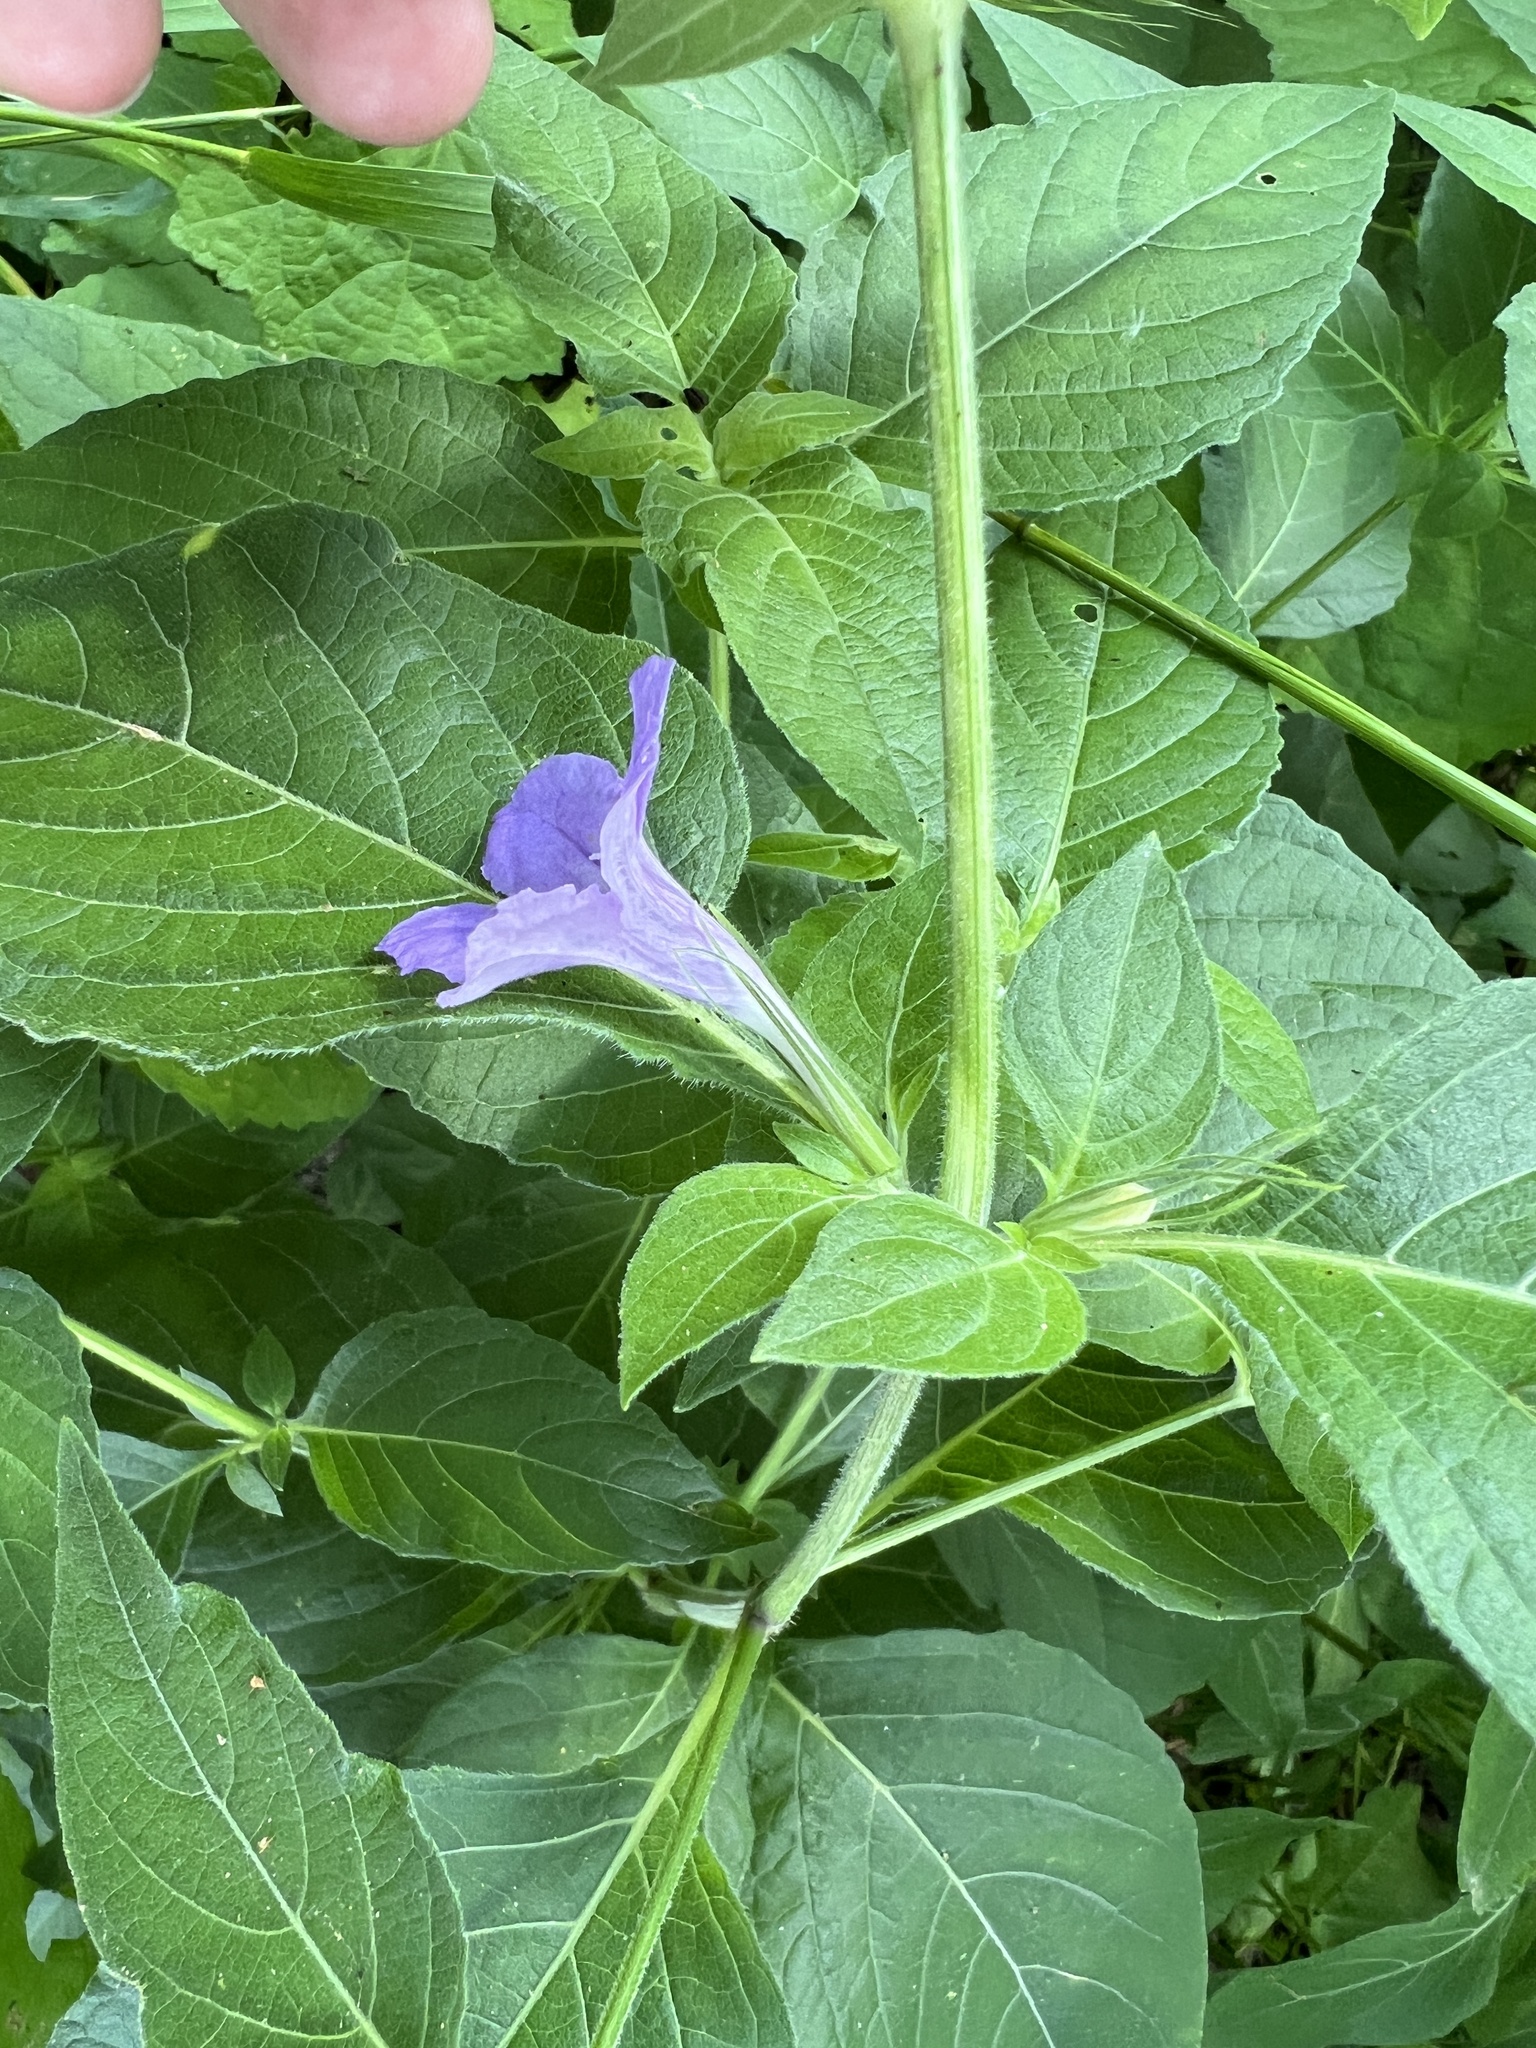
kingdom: Plantae
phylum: Tracheophyta
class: Magnoliopsida
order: Lamiales
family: Acanthaceae
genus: Ruellia
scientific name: Ruellia drummondiana
